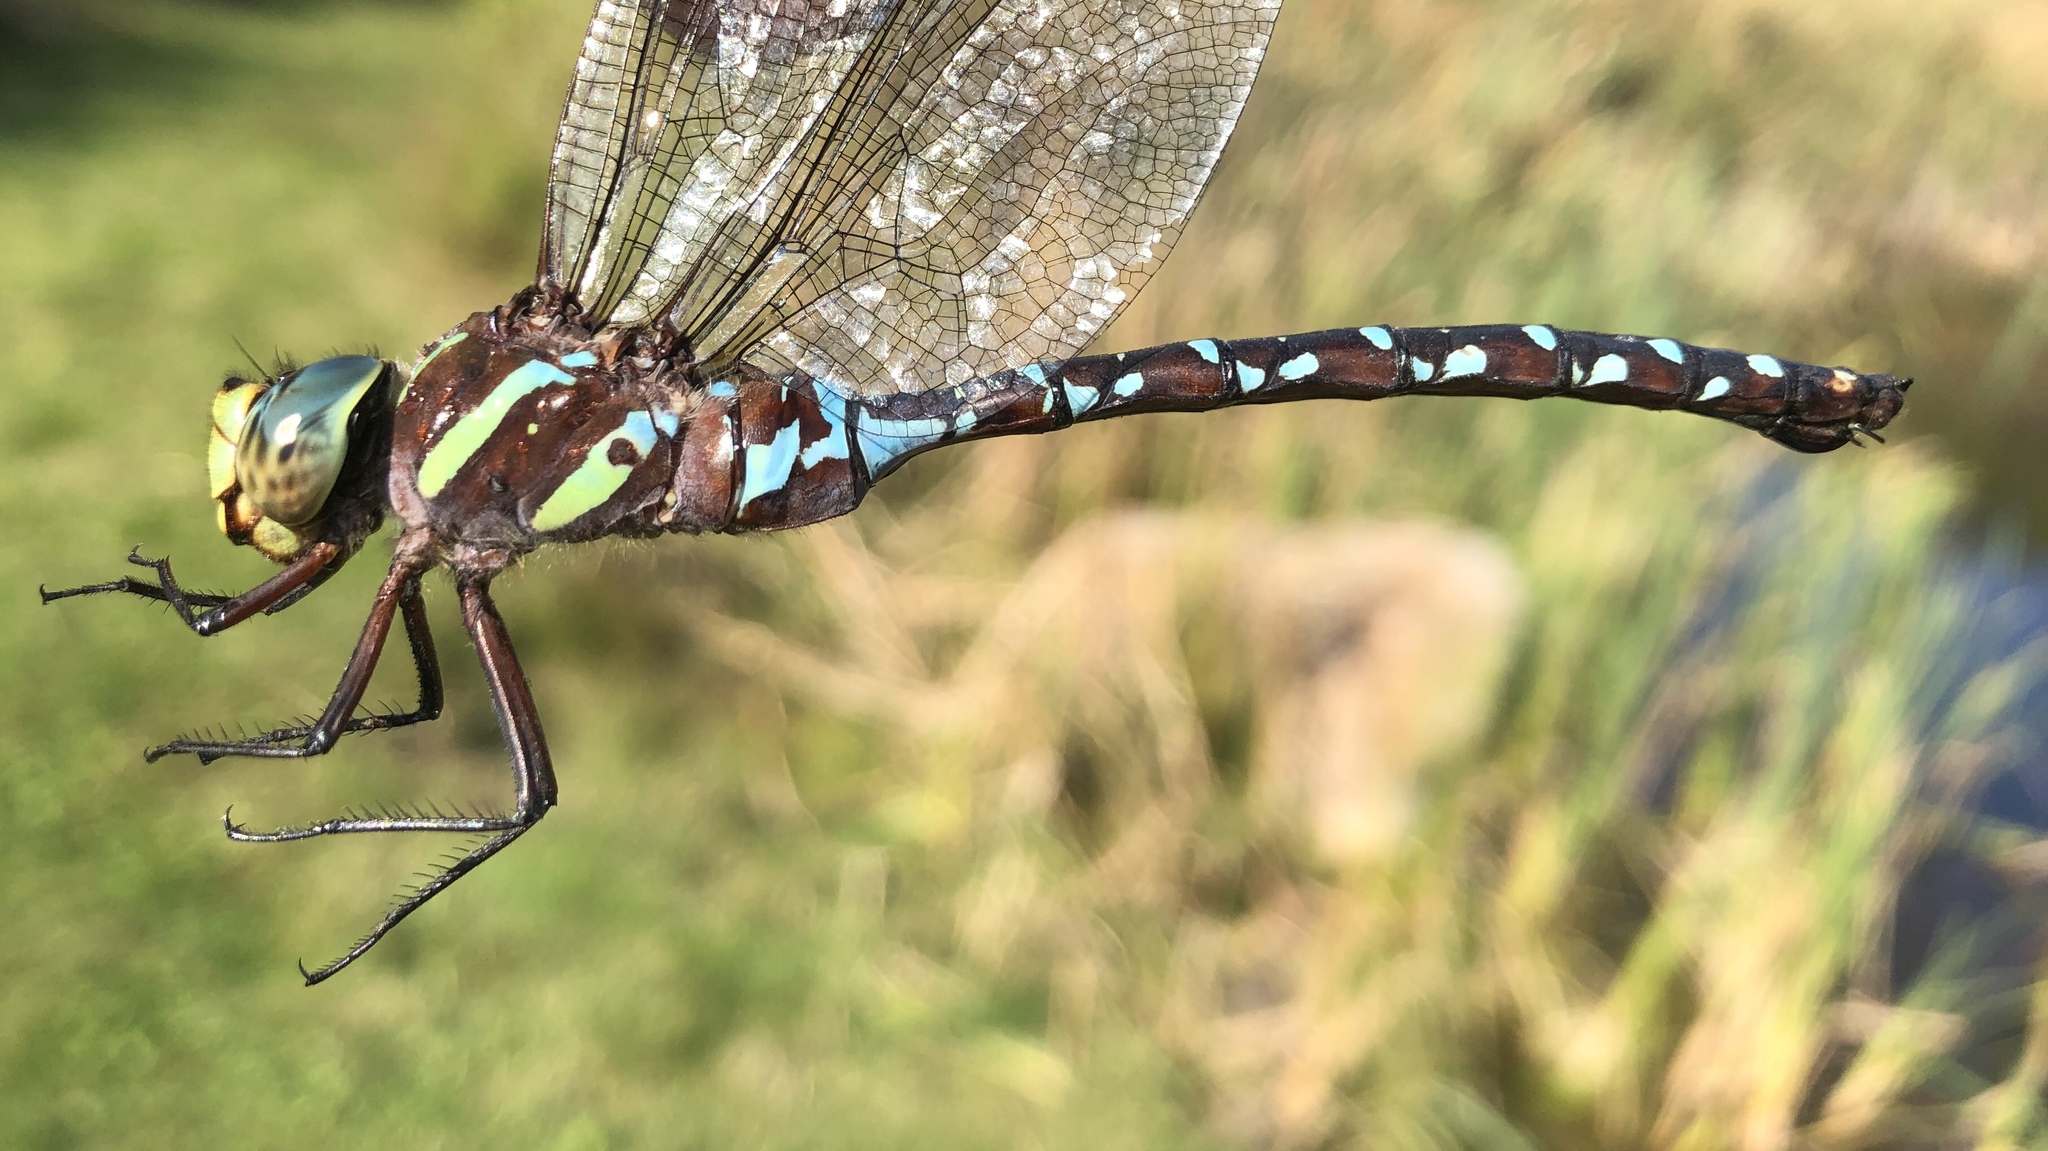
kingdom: Animalia
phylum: Arthropoda
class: Insecta
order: Odonata
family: Aeshnidae
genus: Aeshna
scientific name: Aeshna tuberculifera
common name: Aeschne à tubercules
